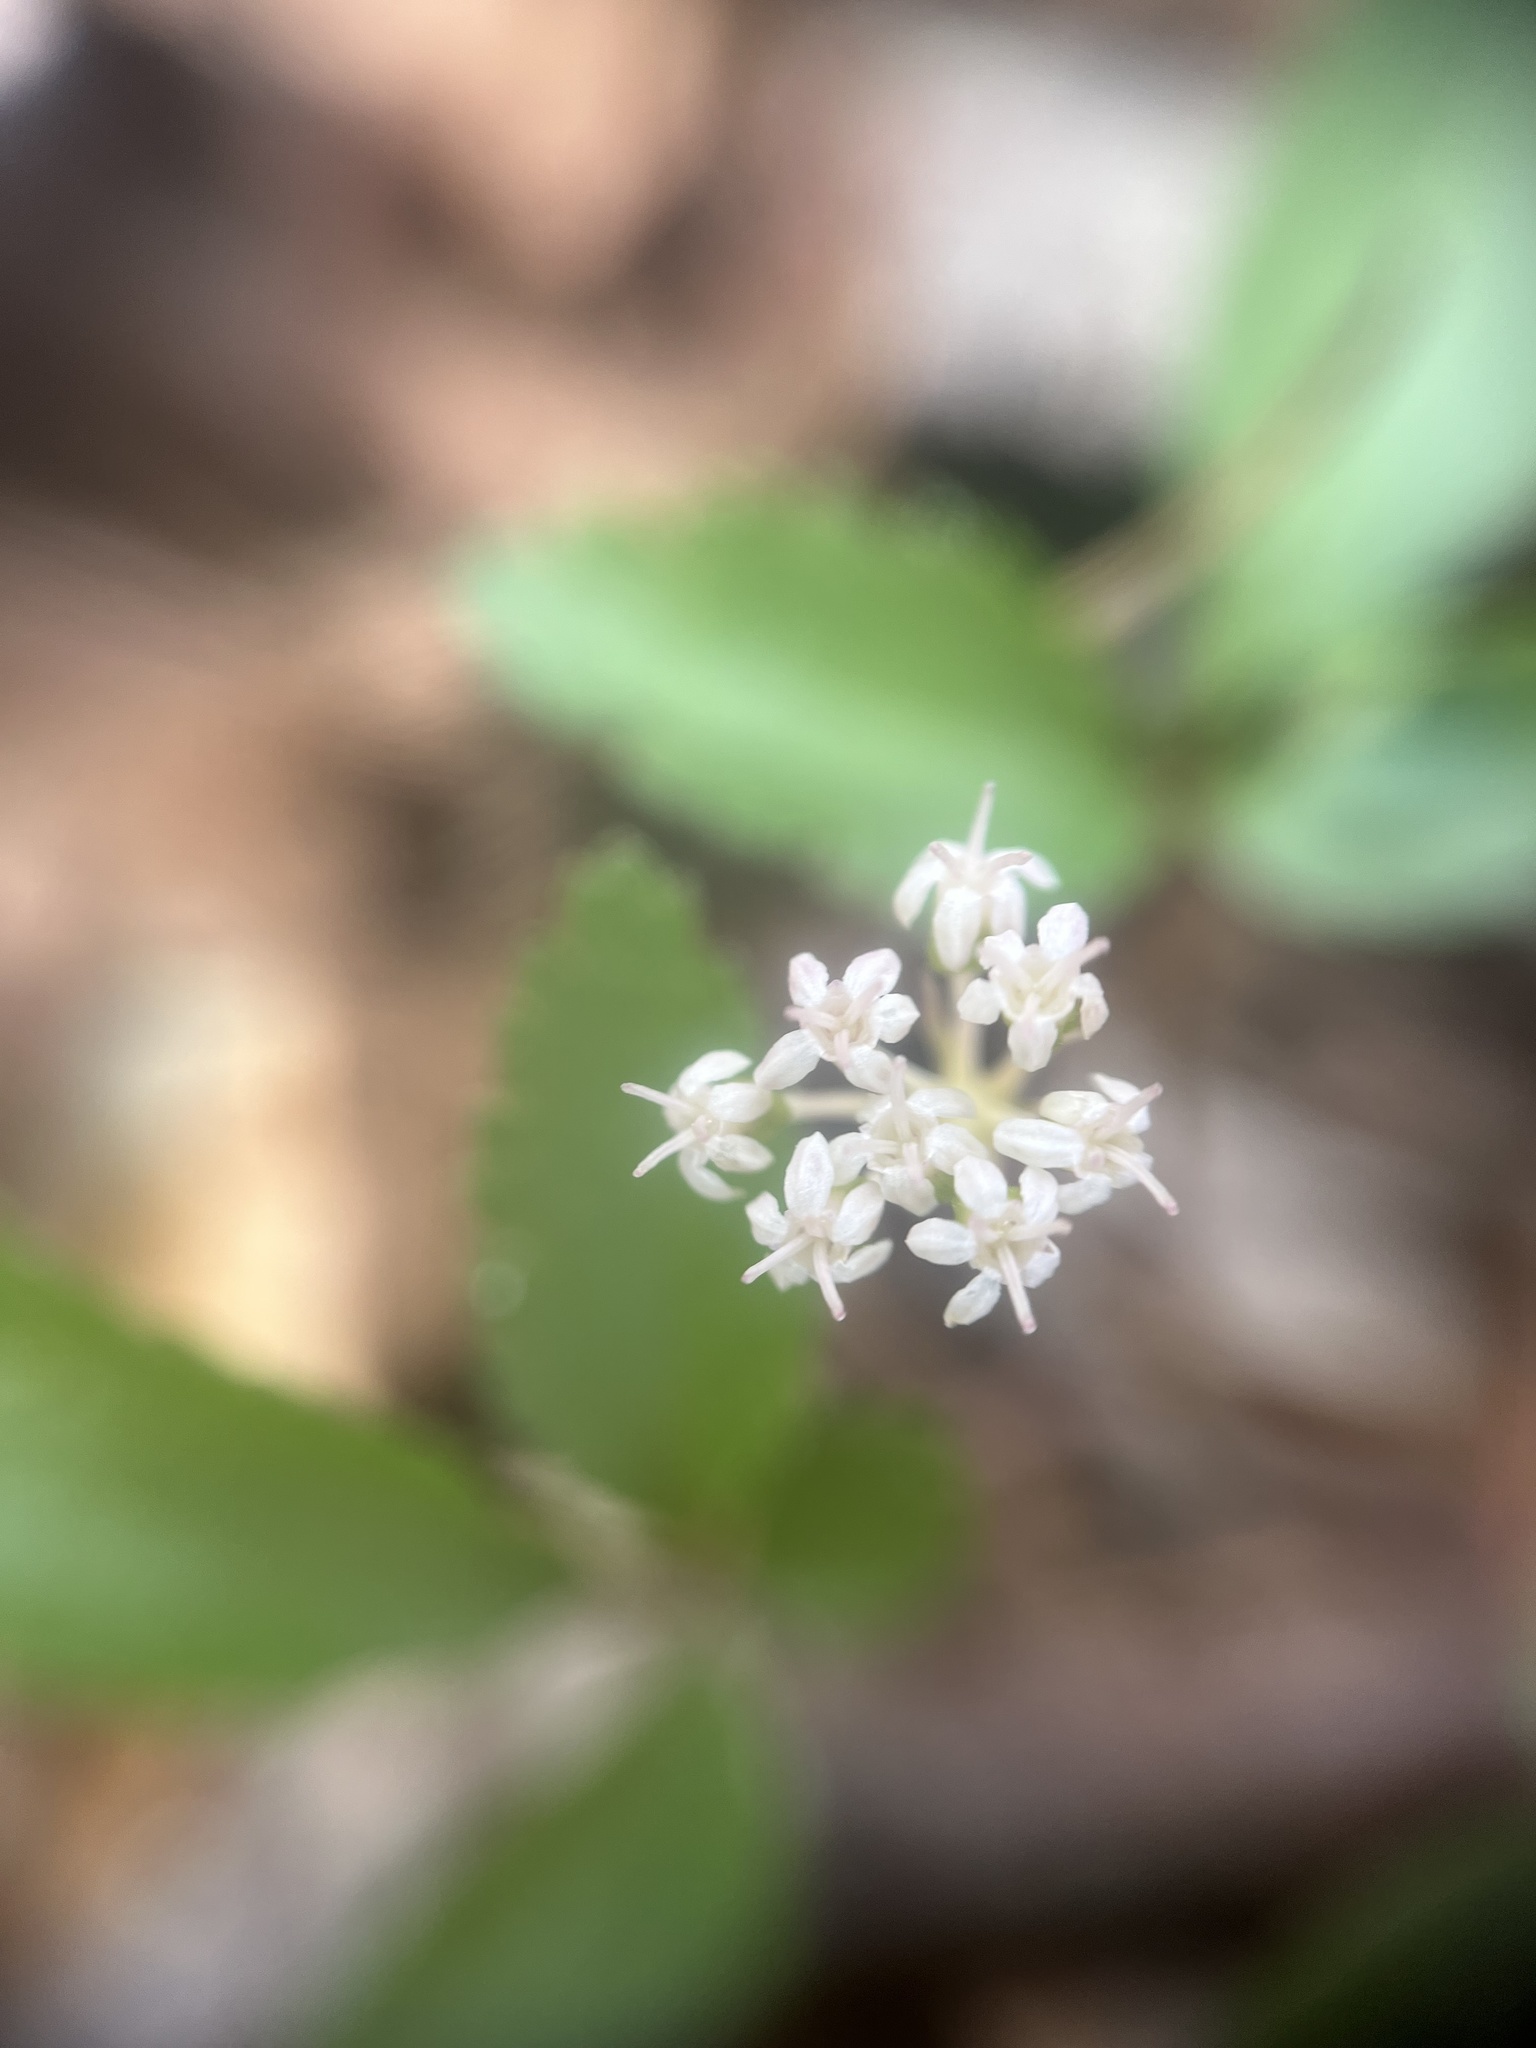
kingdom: Plantae
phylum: Tracheophyta
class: Magnoliopsida
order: Apiales
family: Araliaceae
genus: Panax
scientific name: Panax trifolius
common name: Dwarf ginseng
